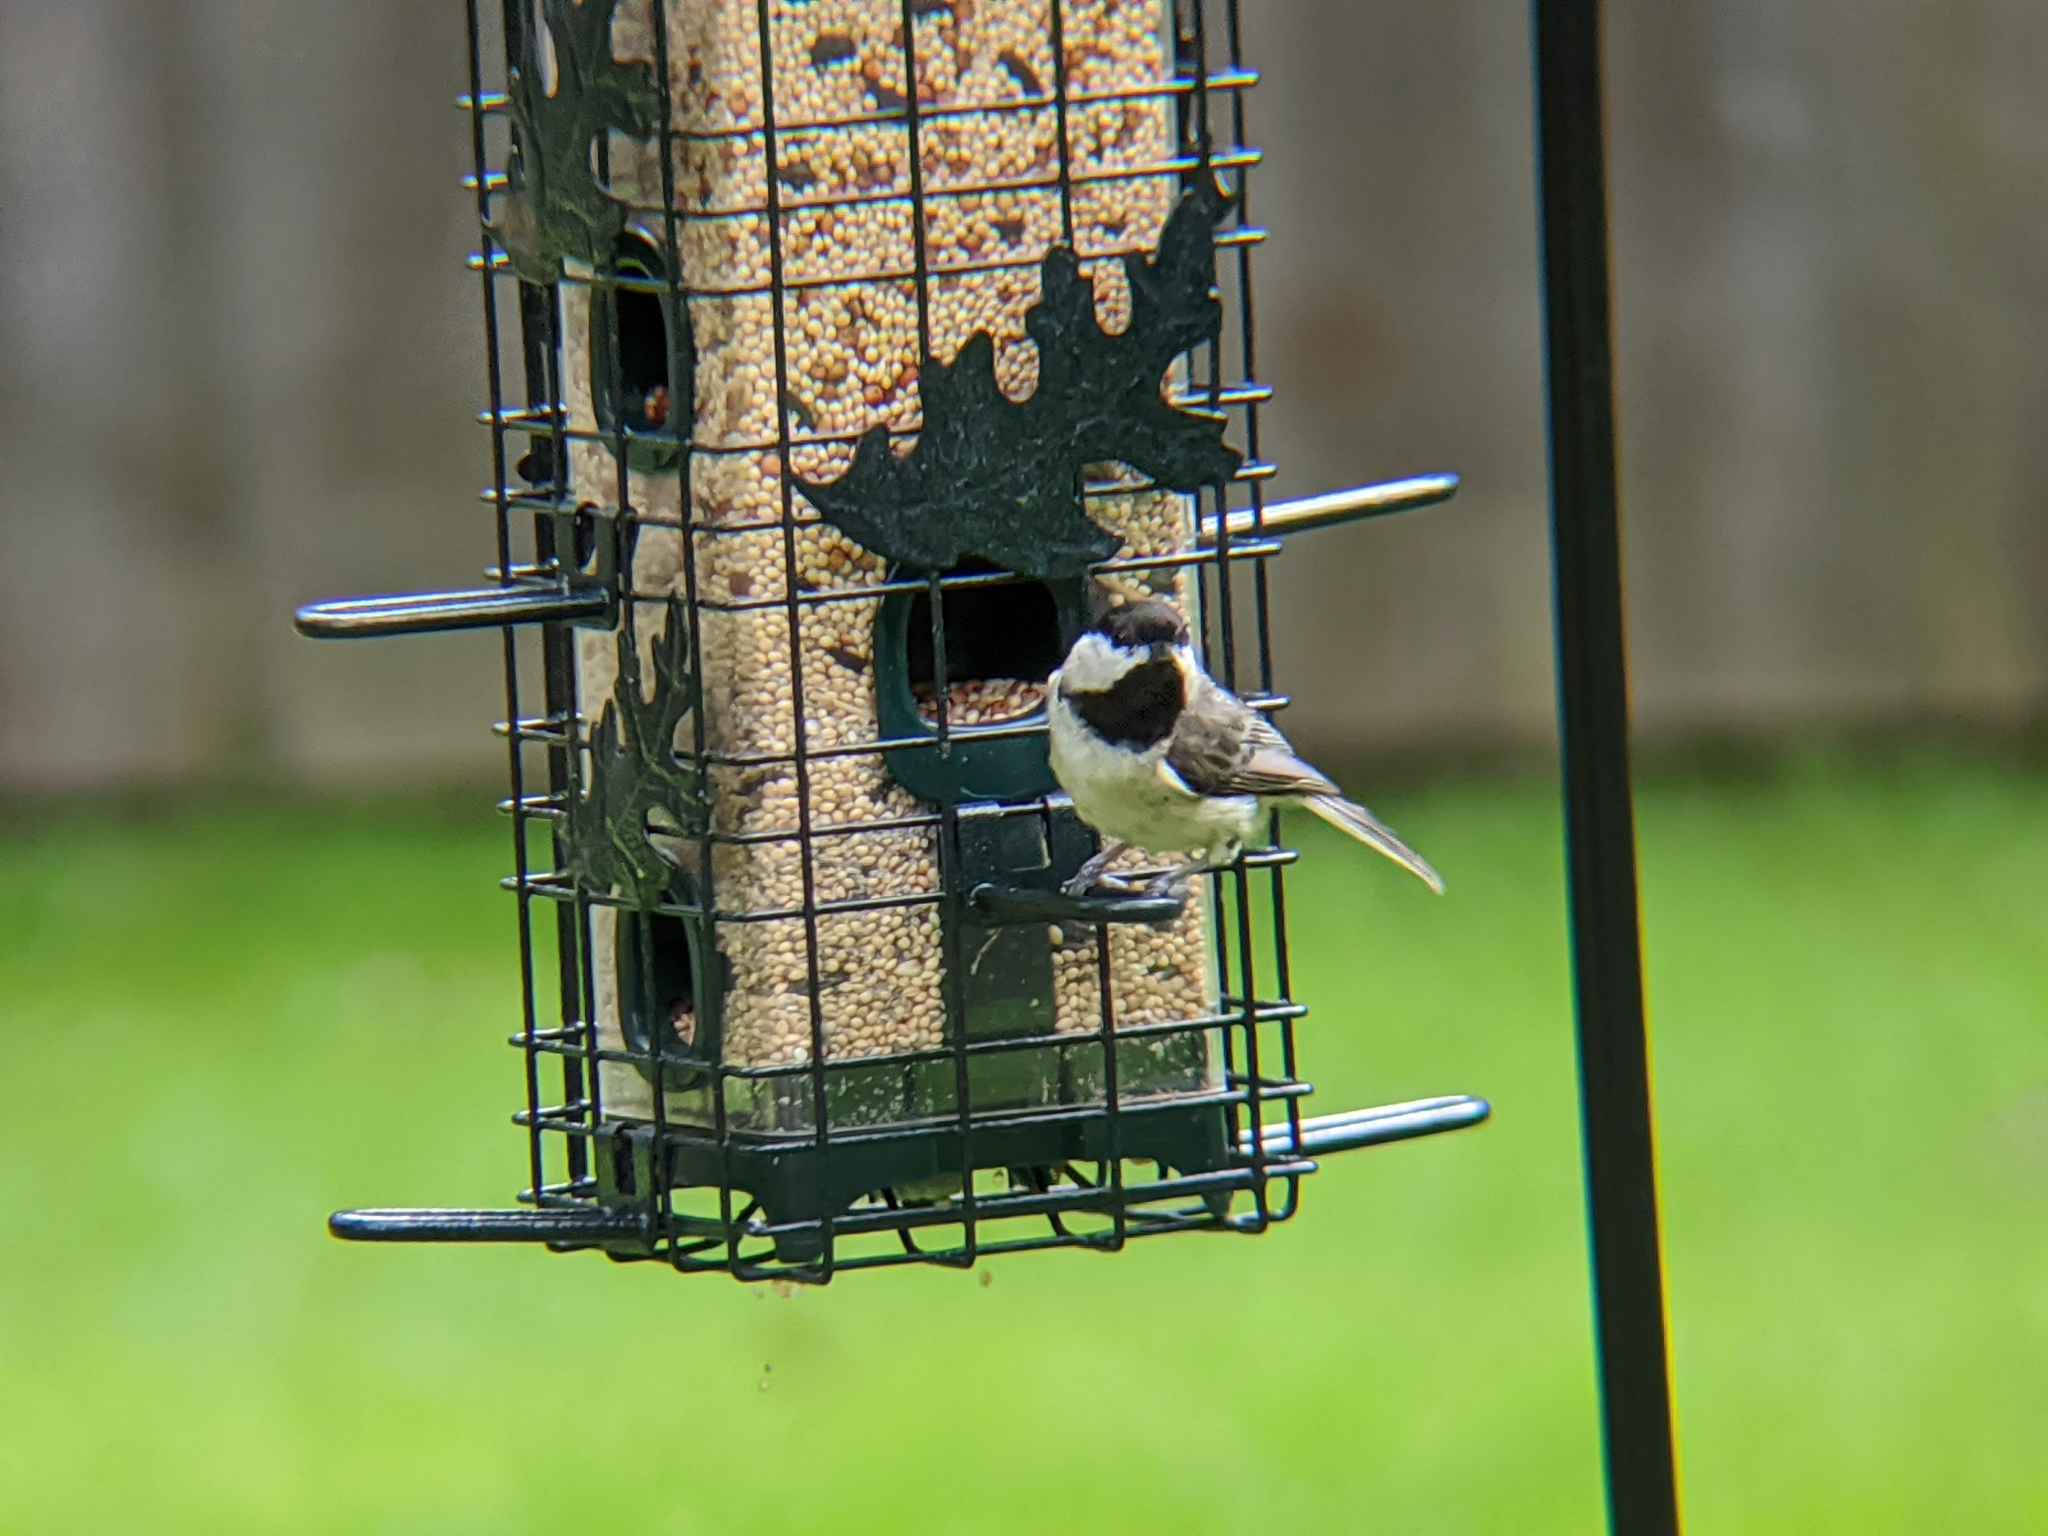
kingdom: Animalia
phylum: Chordata
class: Aves
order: Passeriformes
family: Paridae
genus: Poecile
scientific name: Poecile carolinensis
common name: Carolina chickadee
